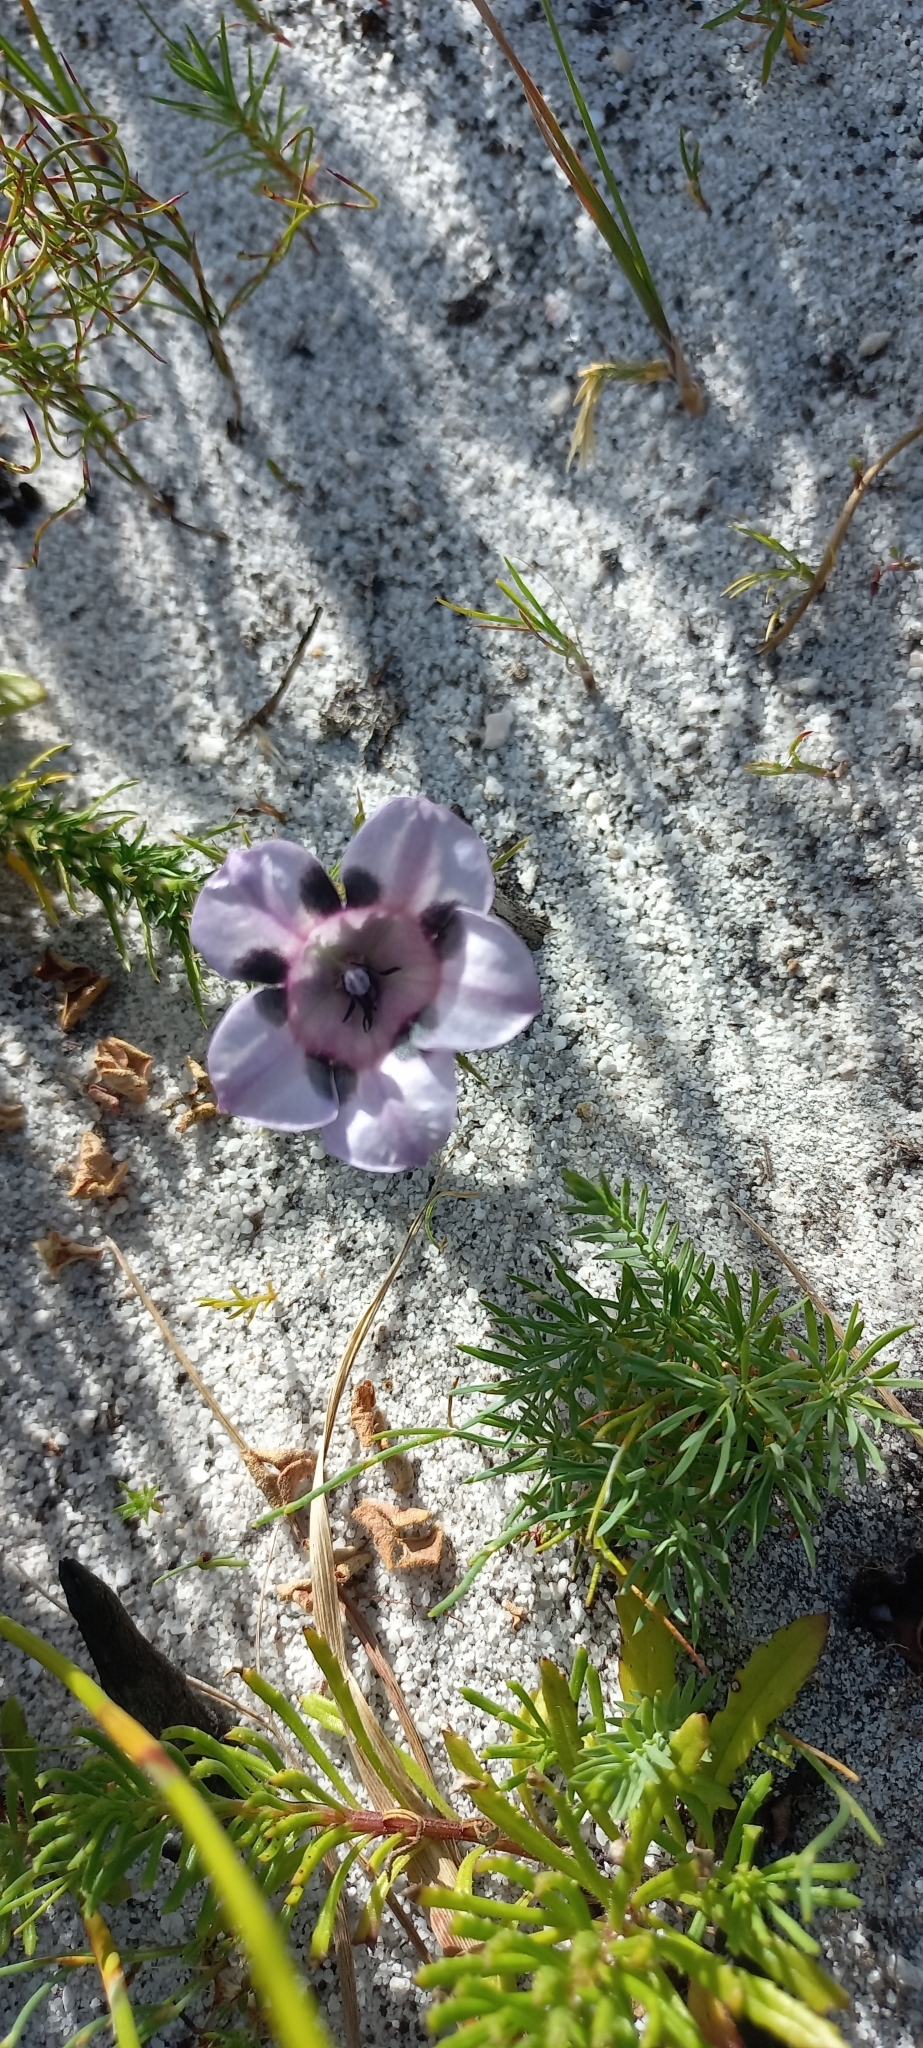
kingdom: Plantae
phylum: Tracheophyta
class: Magnoliopsida
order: Asterales
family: Campanulaceae
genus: Roella
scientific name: Roella maculata
